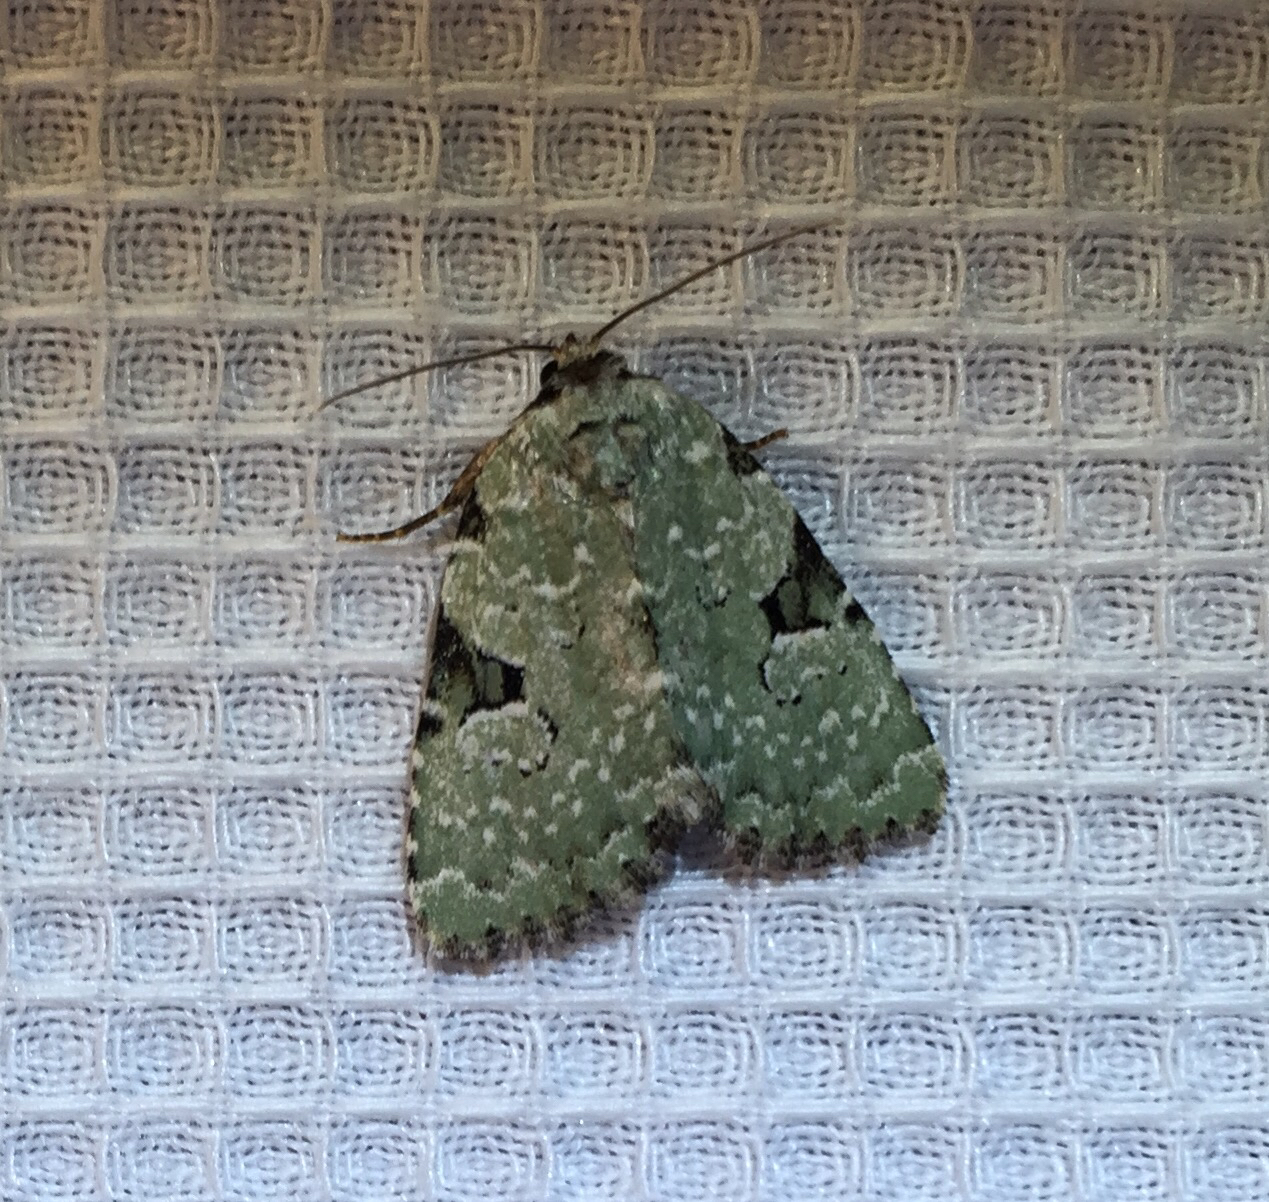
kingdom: Animalia
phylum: Arthropoda
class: Insecta
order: Lepidoptera
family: Noctuidae
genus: Leuconycta
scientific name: Leuconycta diphteroides
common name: Green leuconycta moth
